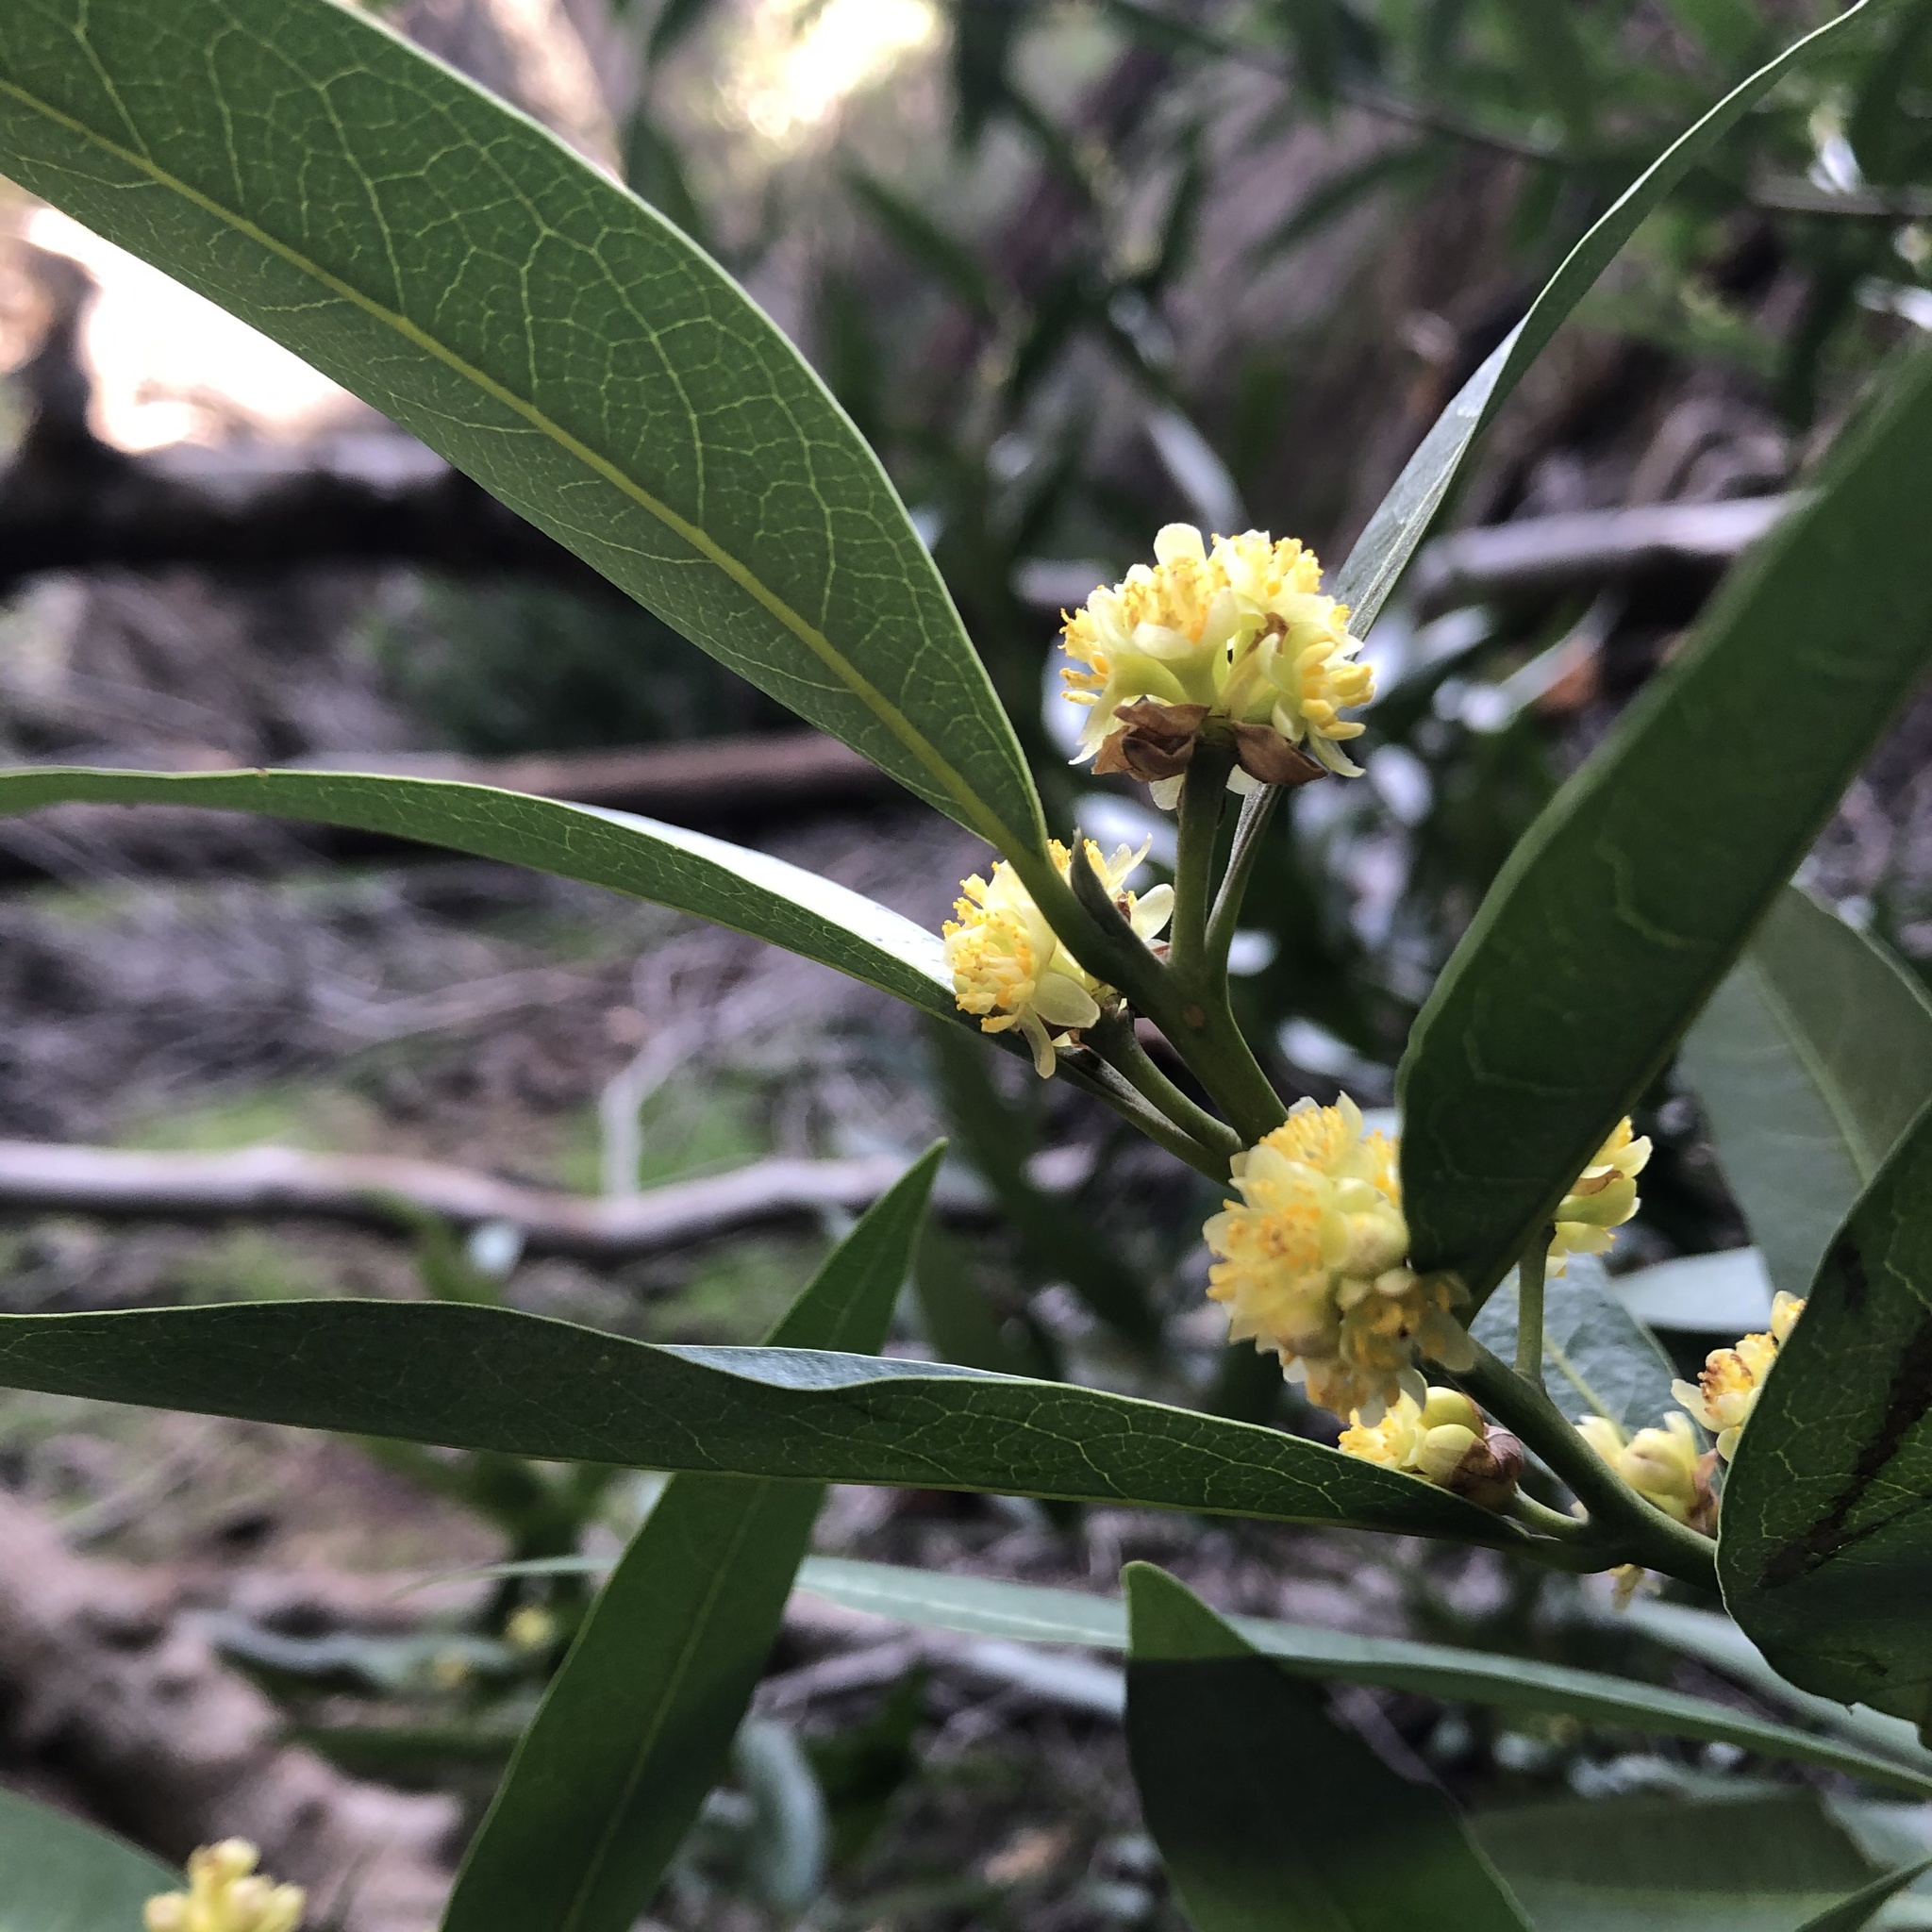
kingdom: Plantae
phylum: Tracheophyta
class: Magnoliopsida
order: Laurales
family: Lauraceae
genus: Umbellularia
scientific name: Umbellularia californica
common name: California bay
